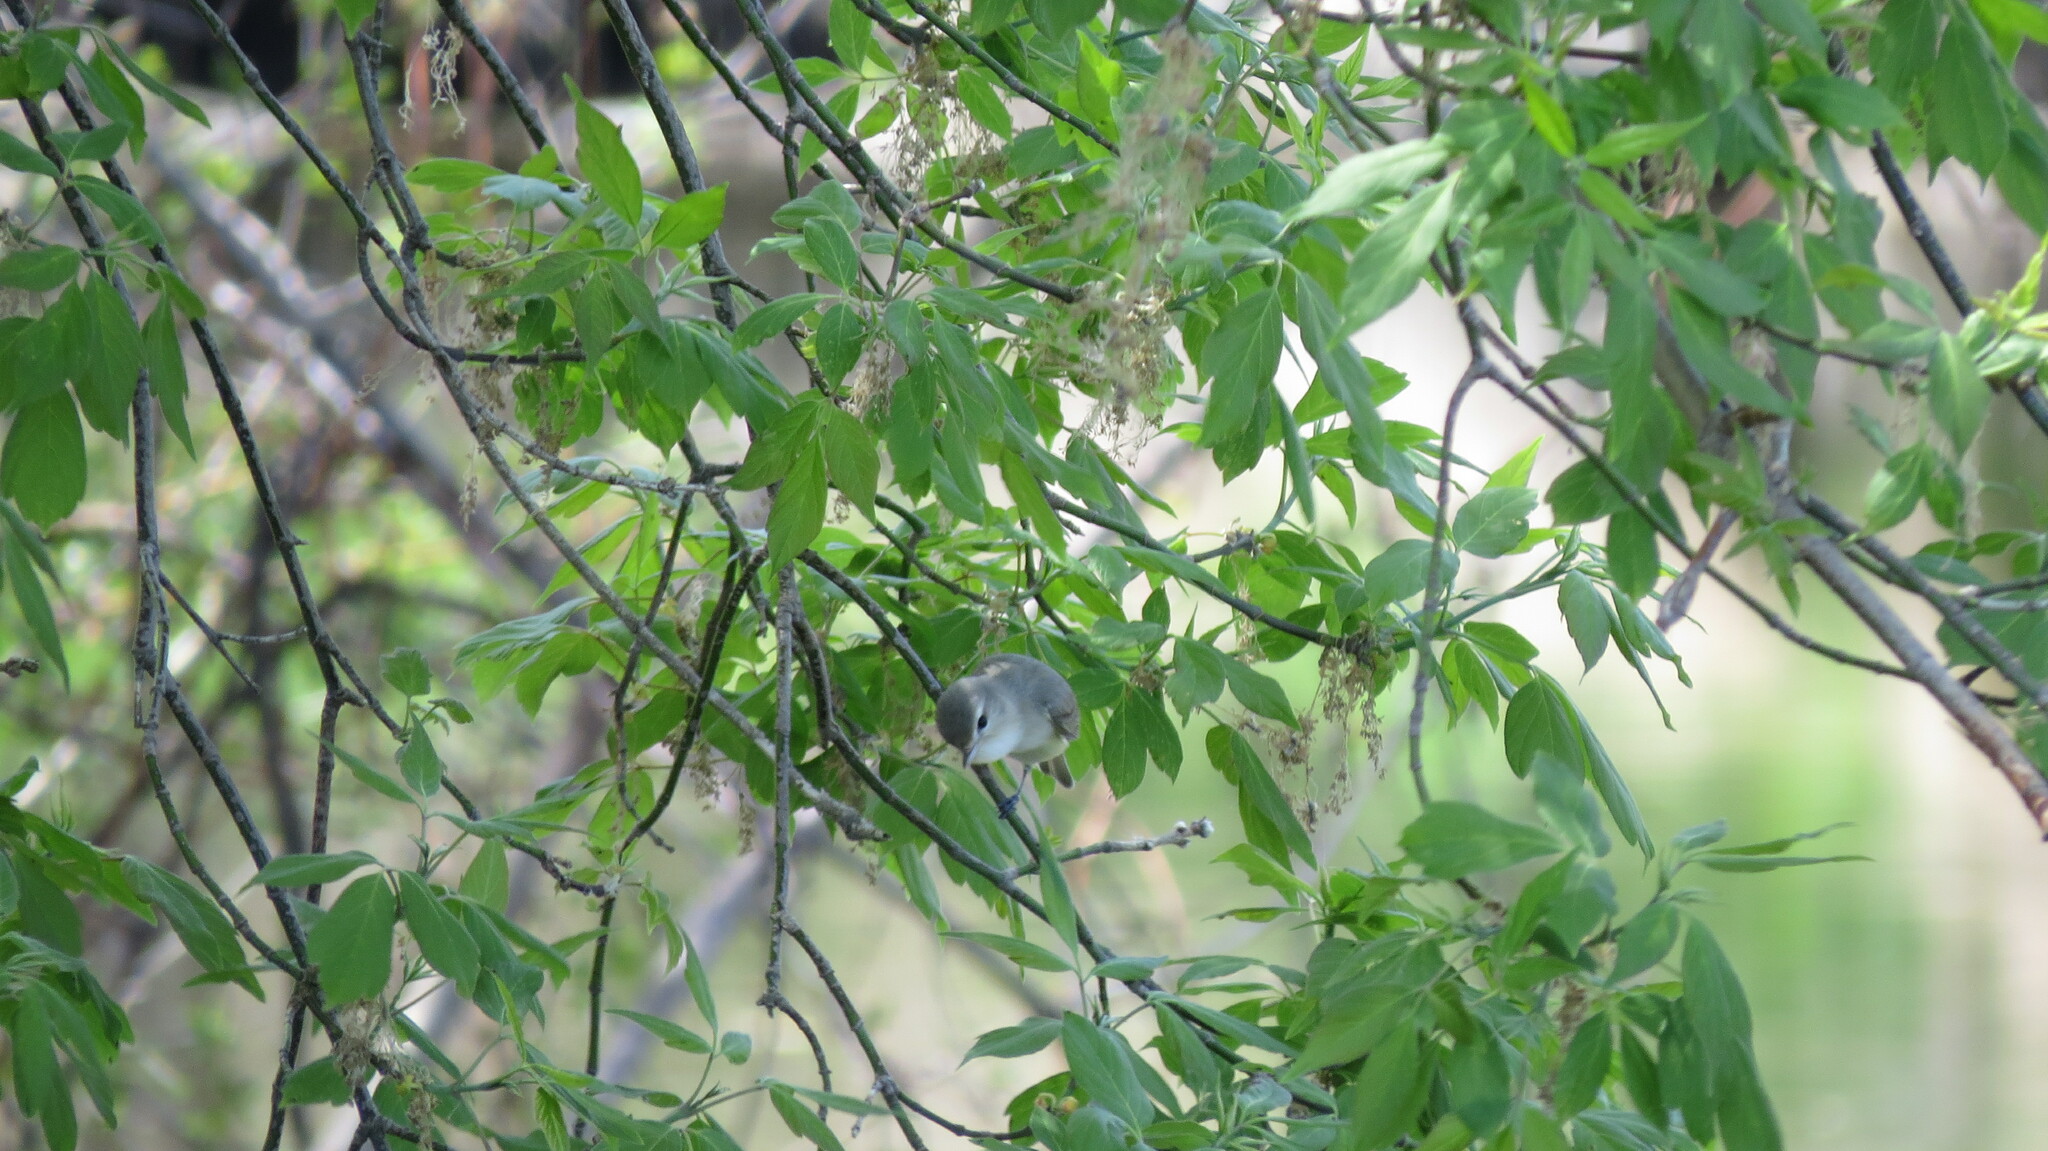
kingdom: Animalia
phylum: Chordata
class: Aves
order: Passeriformes
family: Vireonidae
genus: Vireo
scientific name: Vireo gilvus
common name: Warbling vireo
